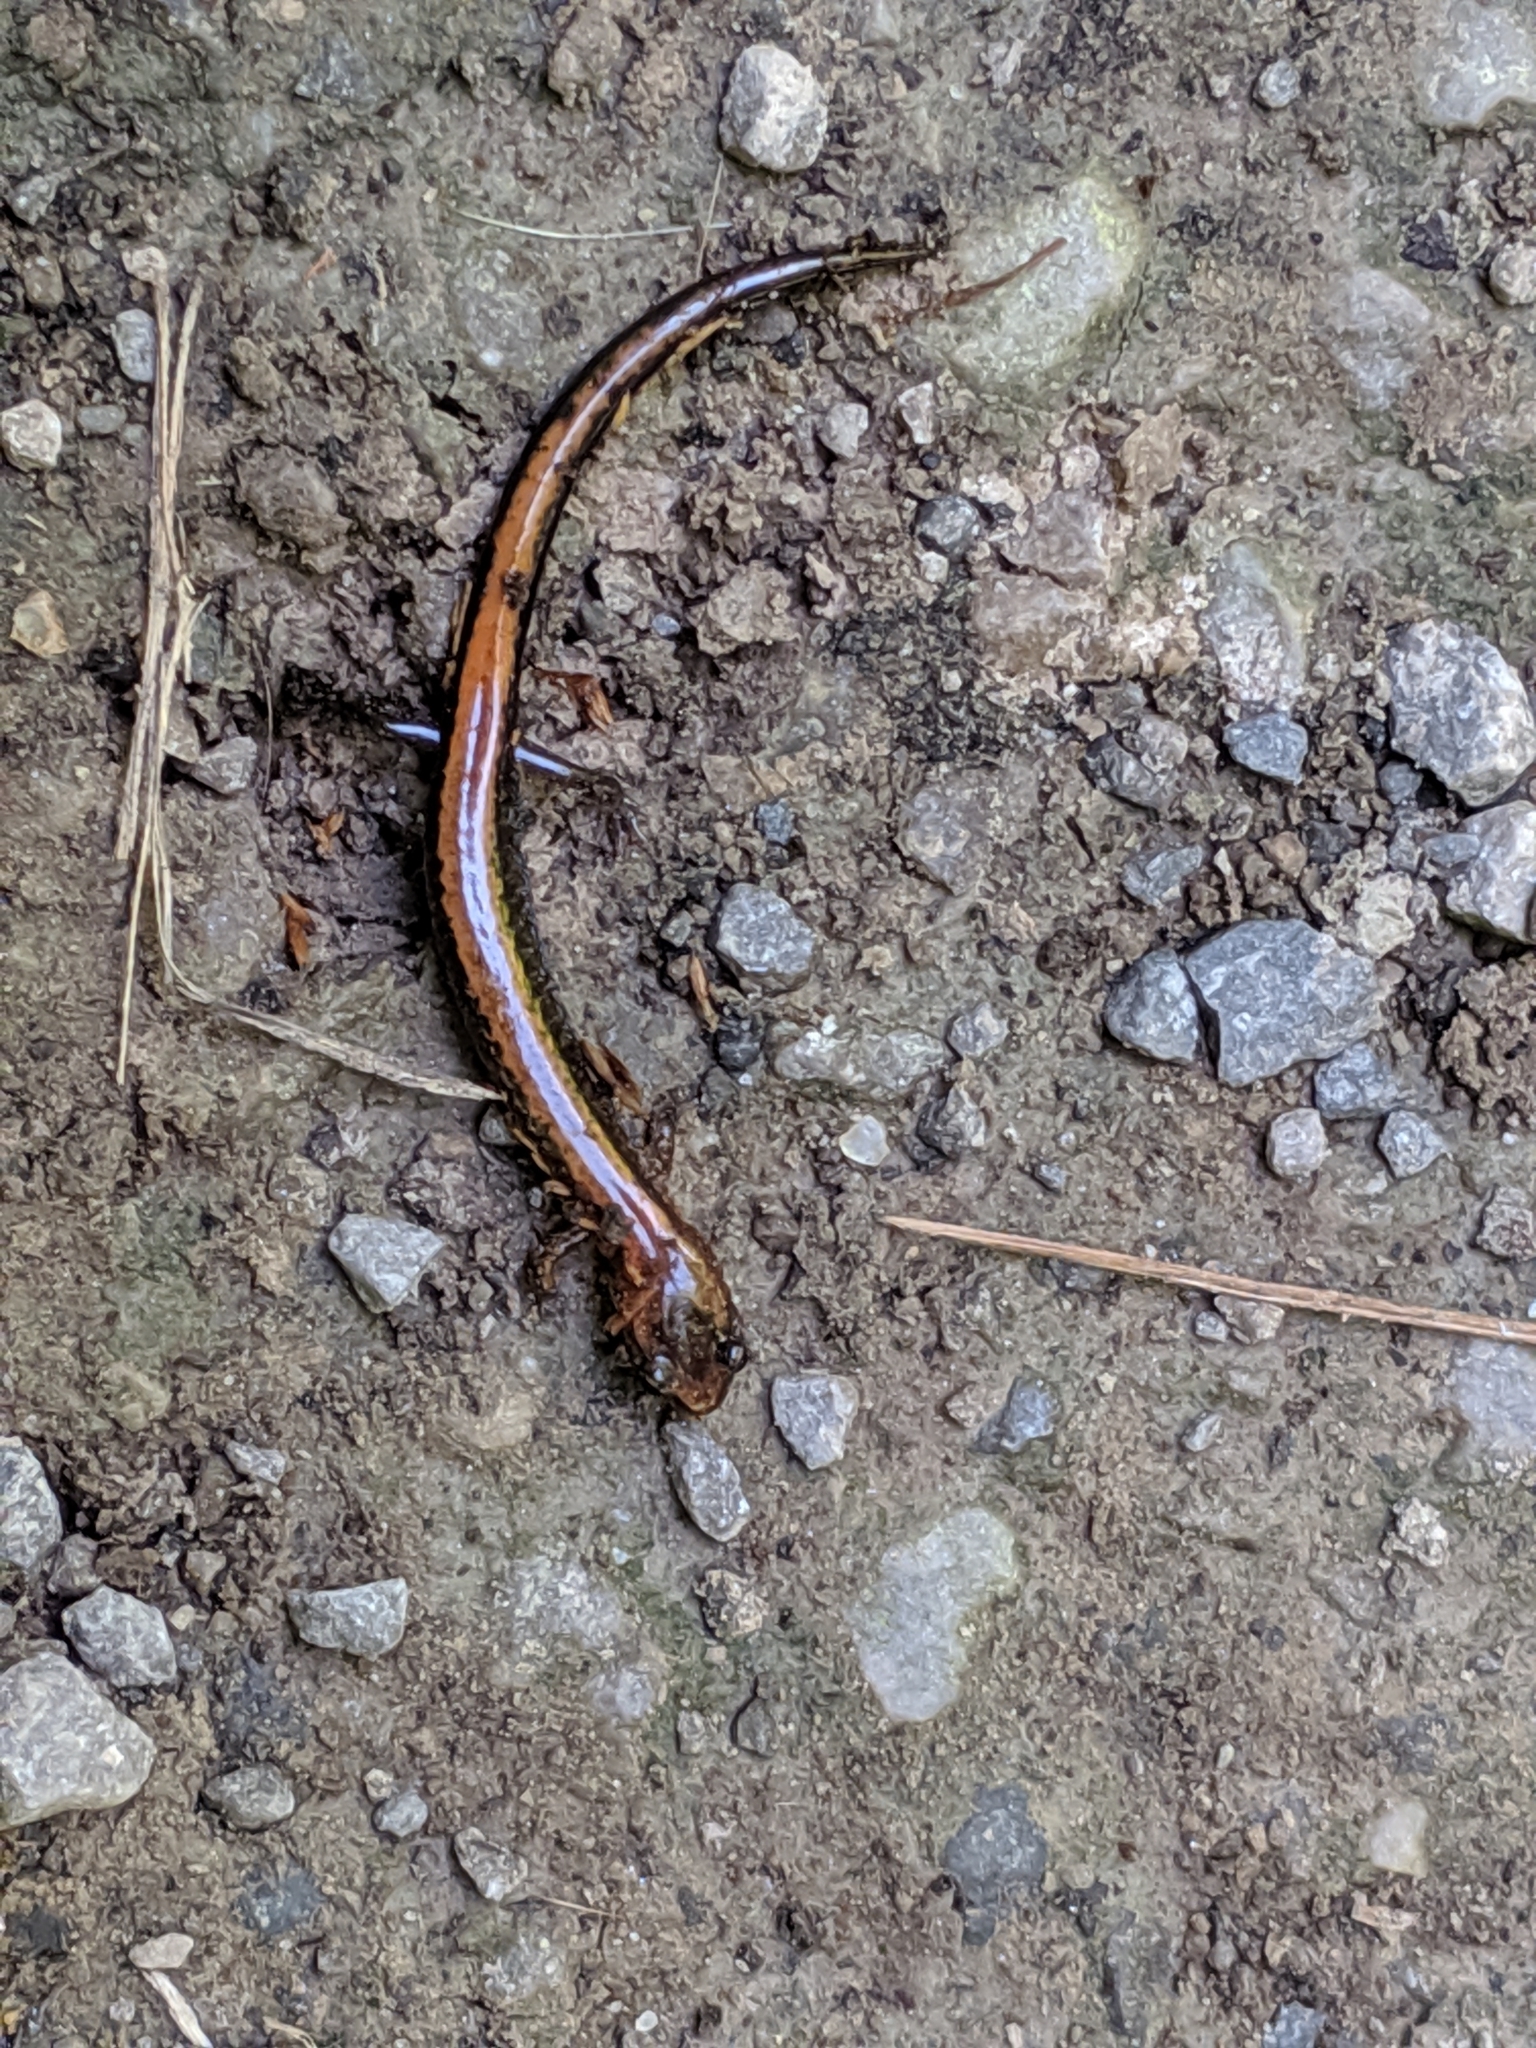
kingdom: Animalia
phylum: Chordata
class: Amphibia
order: Caudata
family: Plethodontidae
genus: Plethodon
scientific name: Plethodon cinereus
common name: Redback salamander
